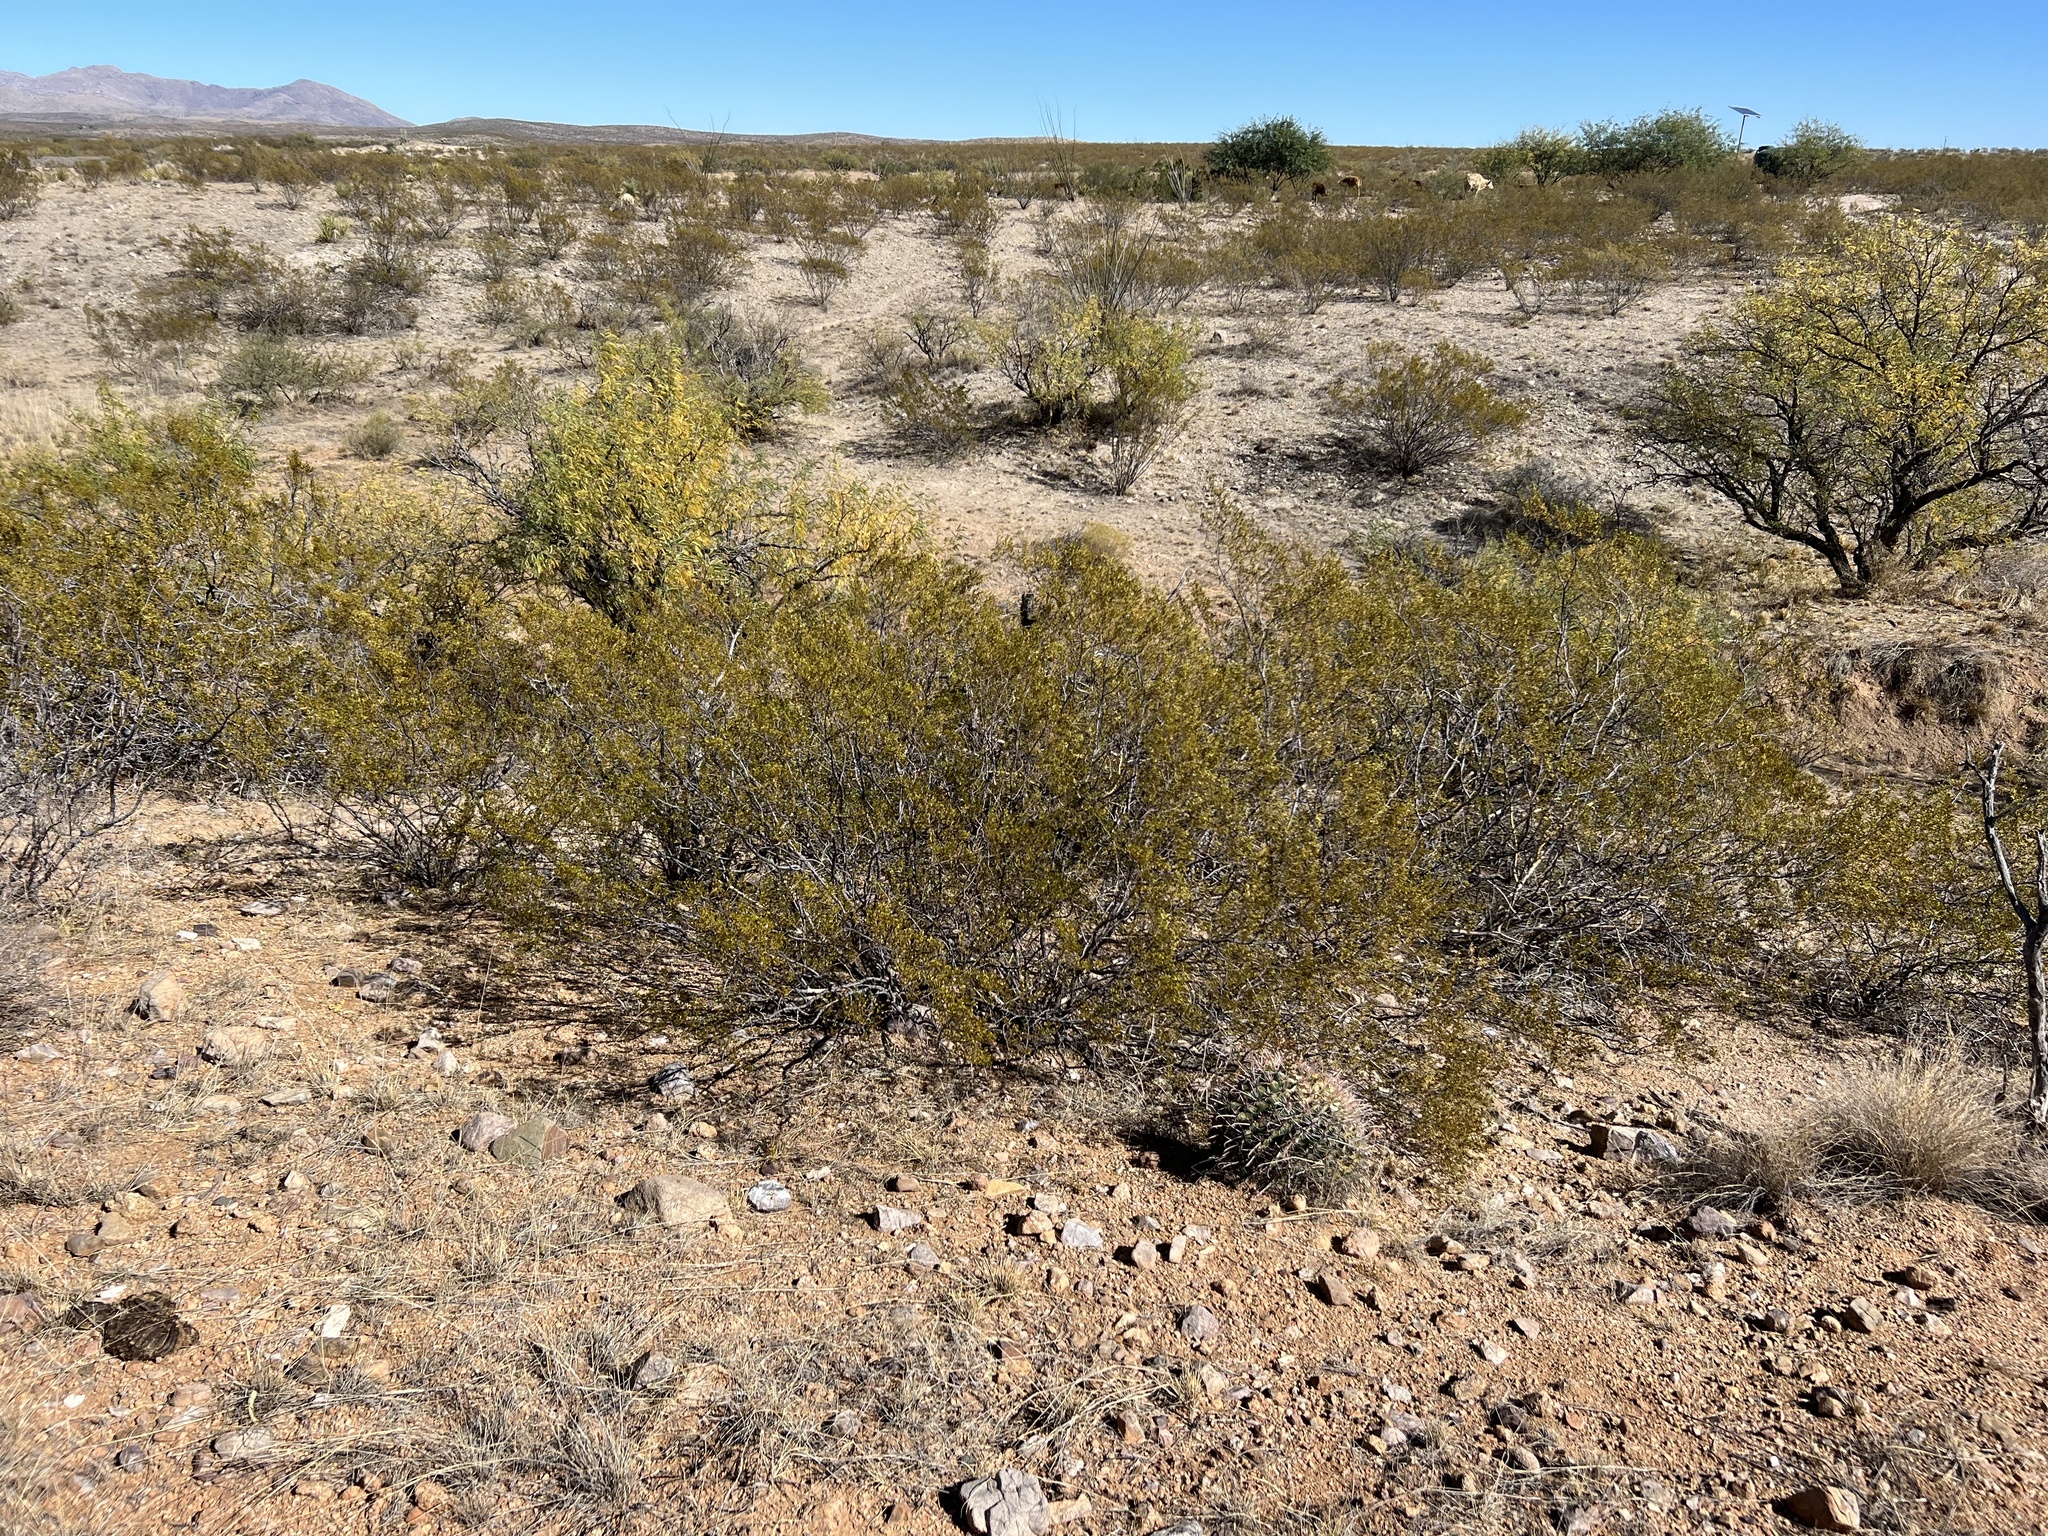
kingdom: Plantae
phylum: Tracheophyta
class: Magnoliopsida
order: Zygophyllales
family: Zygophyllaceae
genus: Larrea
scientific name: Larrea tridentata
